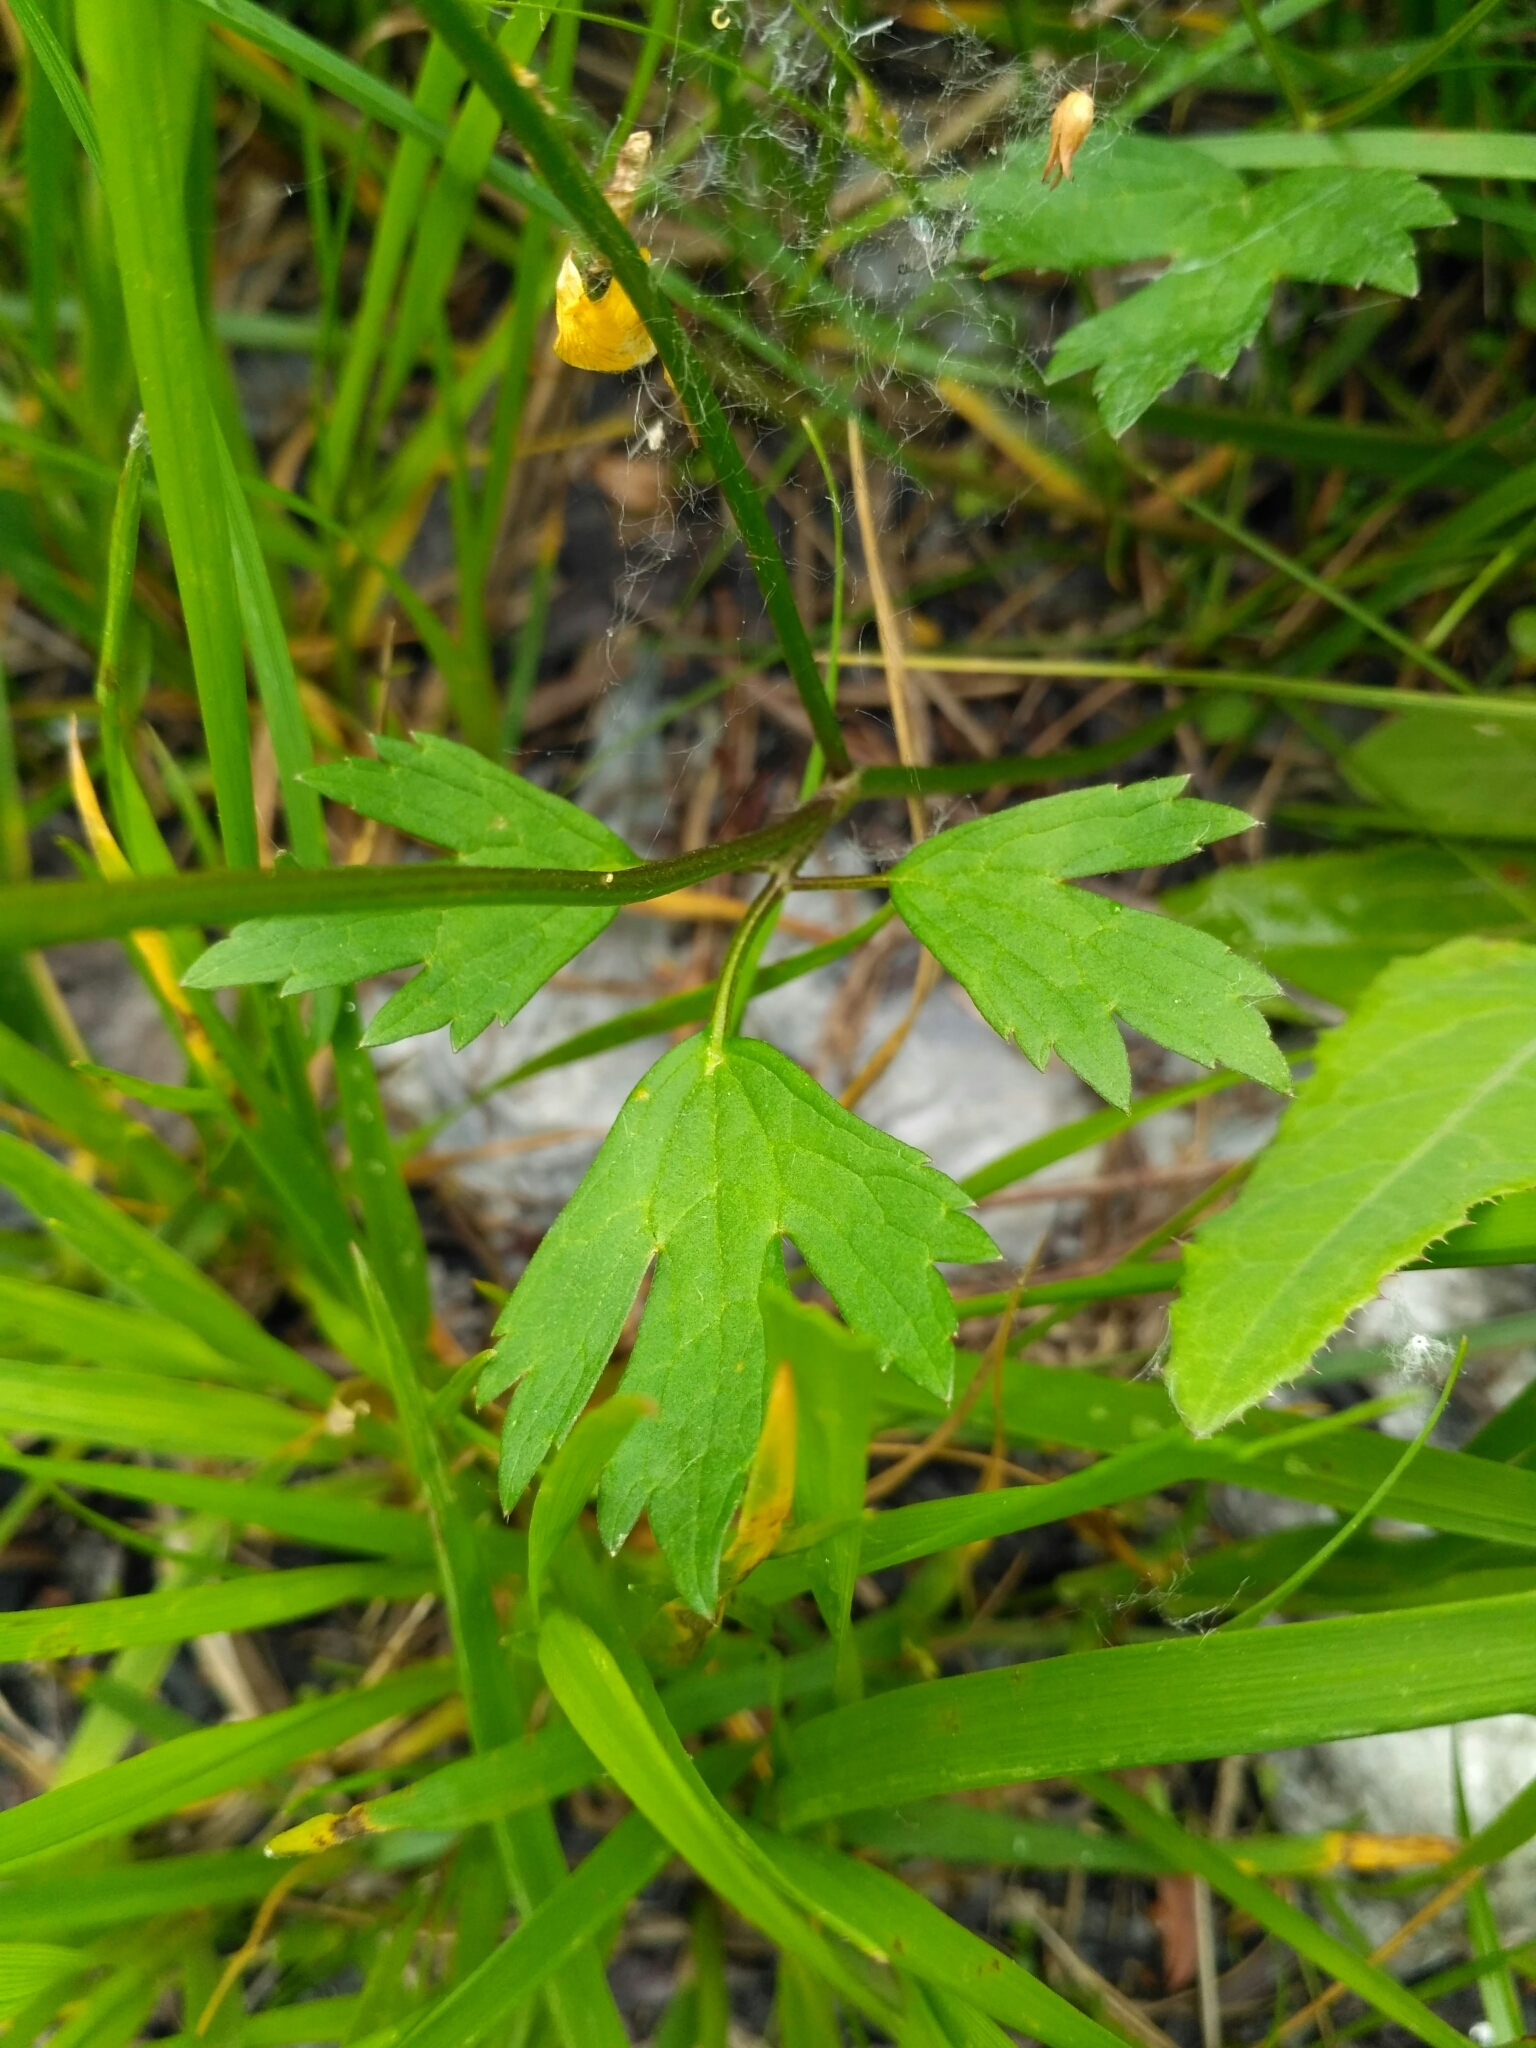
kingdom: Plantae
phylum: Tracheophyta
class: Magnoliopsida
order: Ranunculales
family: Ranunculaceae
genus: Ranunculus
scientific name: Ranunculus repens
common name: Creeping buttercup
